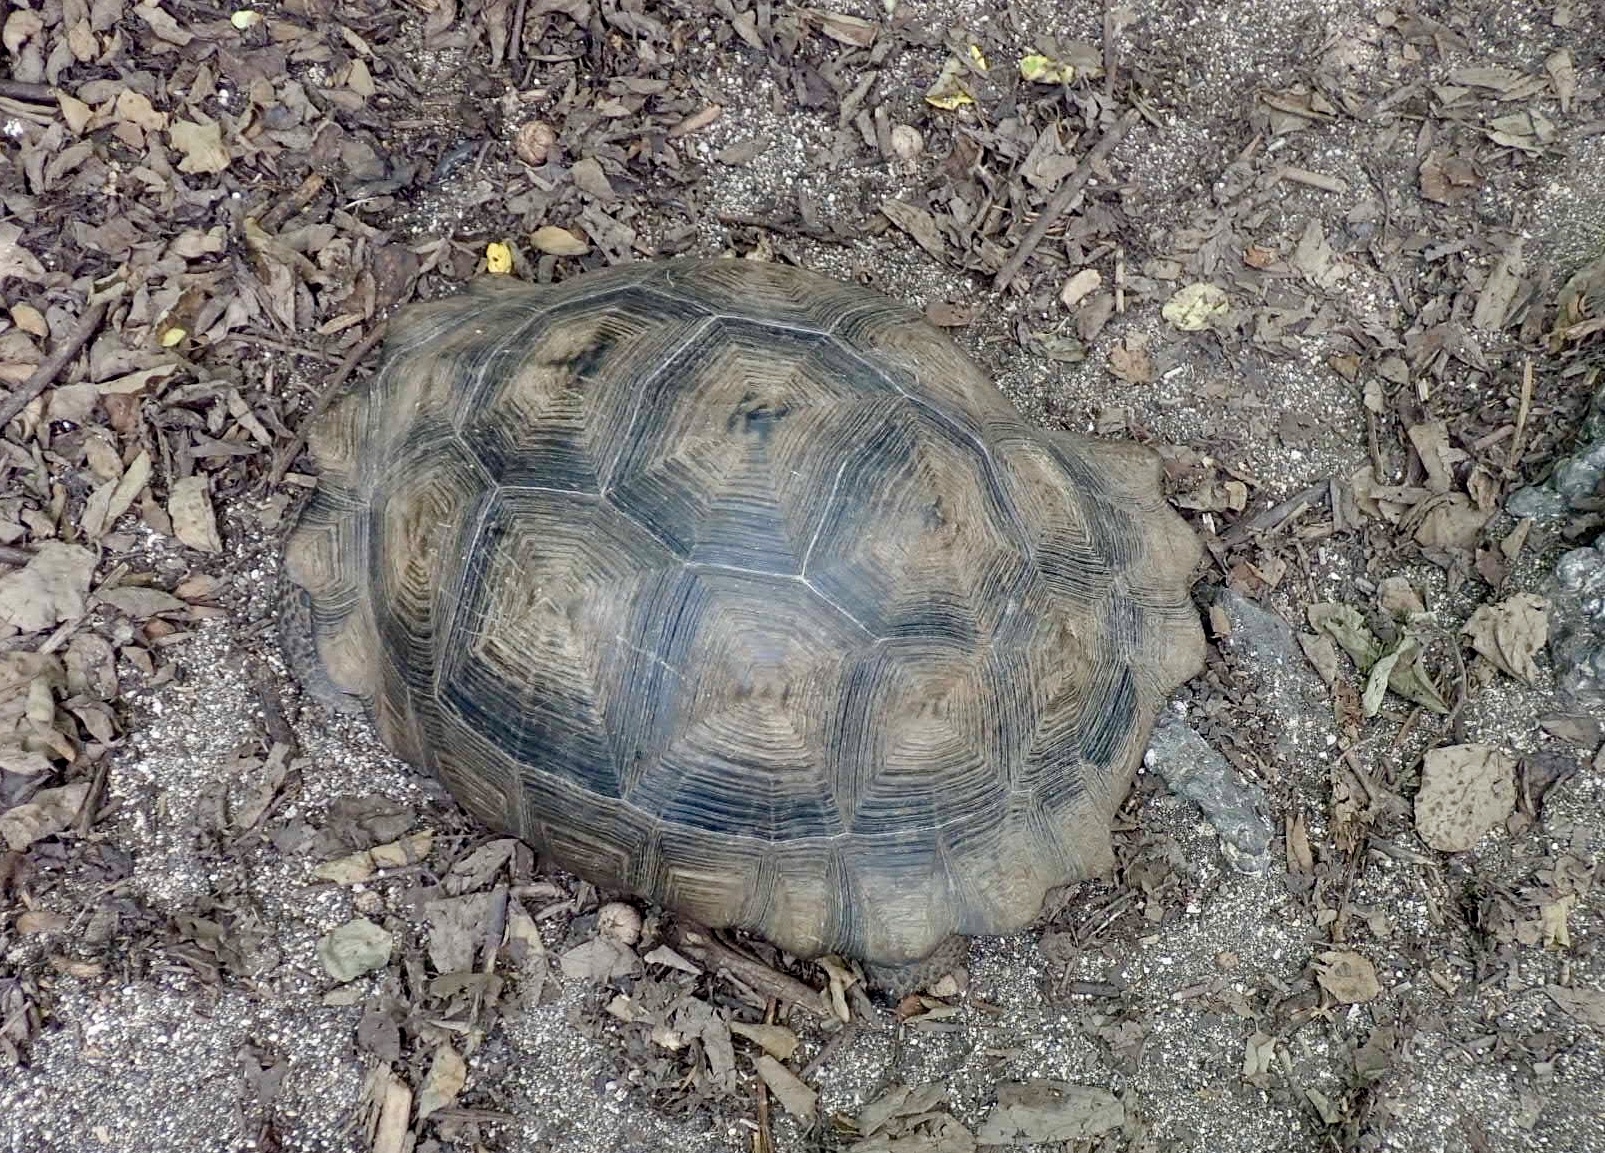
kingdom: Animalia
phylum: Chordata
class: Testudines
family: Testudinidae
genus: Chelonoidis
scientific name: Chelonoidis vandenburghi
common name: Alcedo volcano giant tortoise
